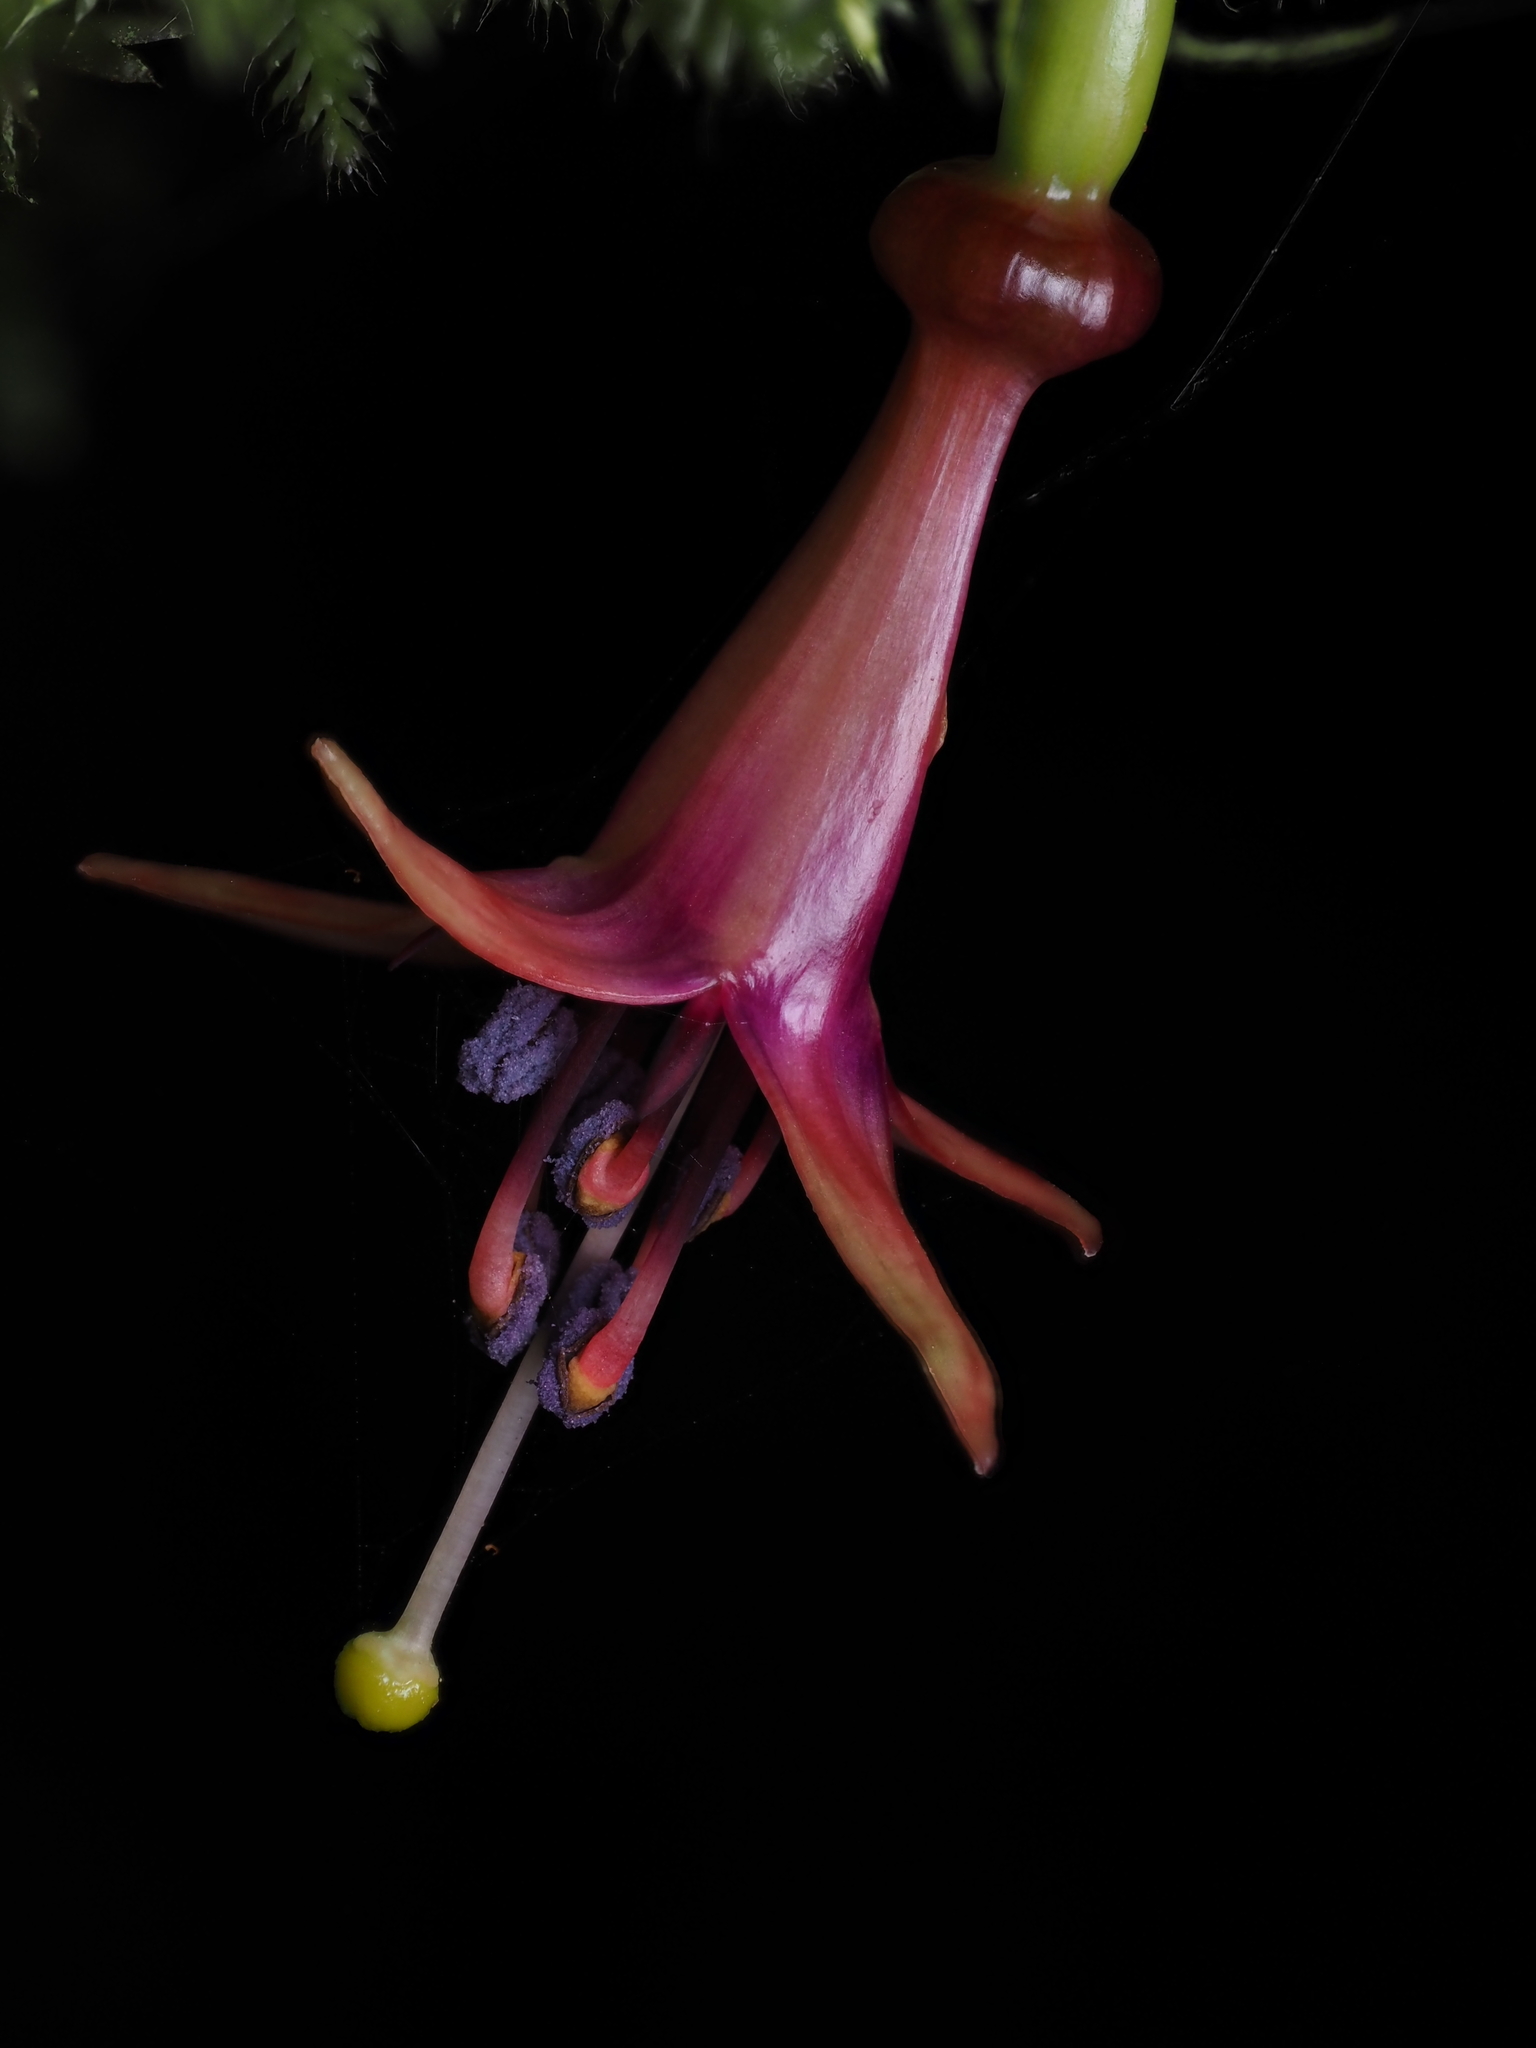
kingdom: Plantae
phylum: Tracheophyta
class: Magnoliopsida
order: Myrtales
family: Onagraceae
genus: Fuchsia
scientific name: Fuchsia excorticata
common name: Tree fuchsia
